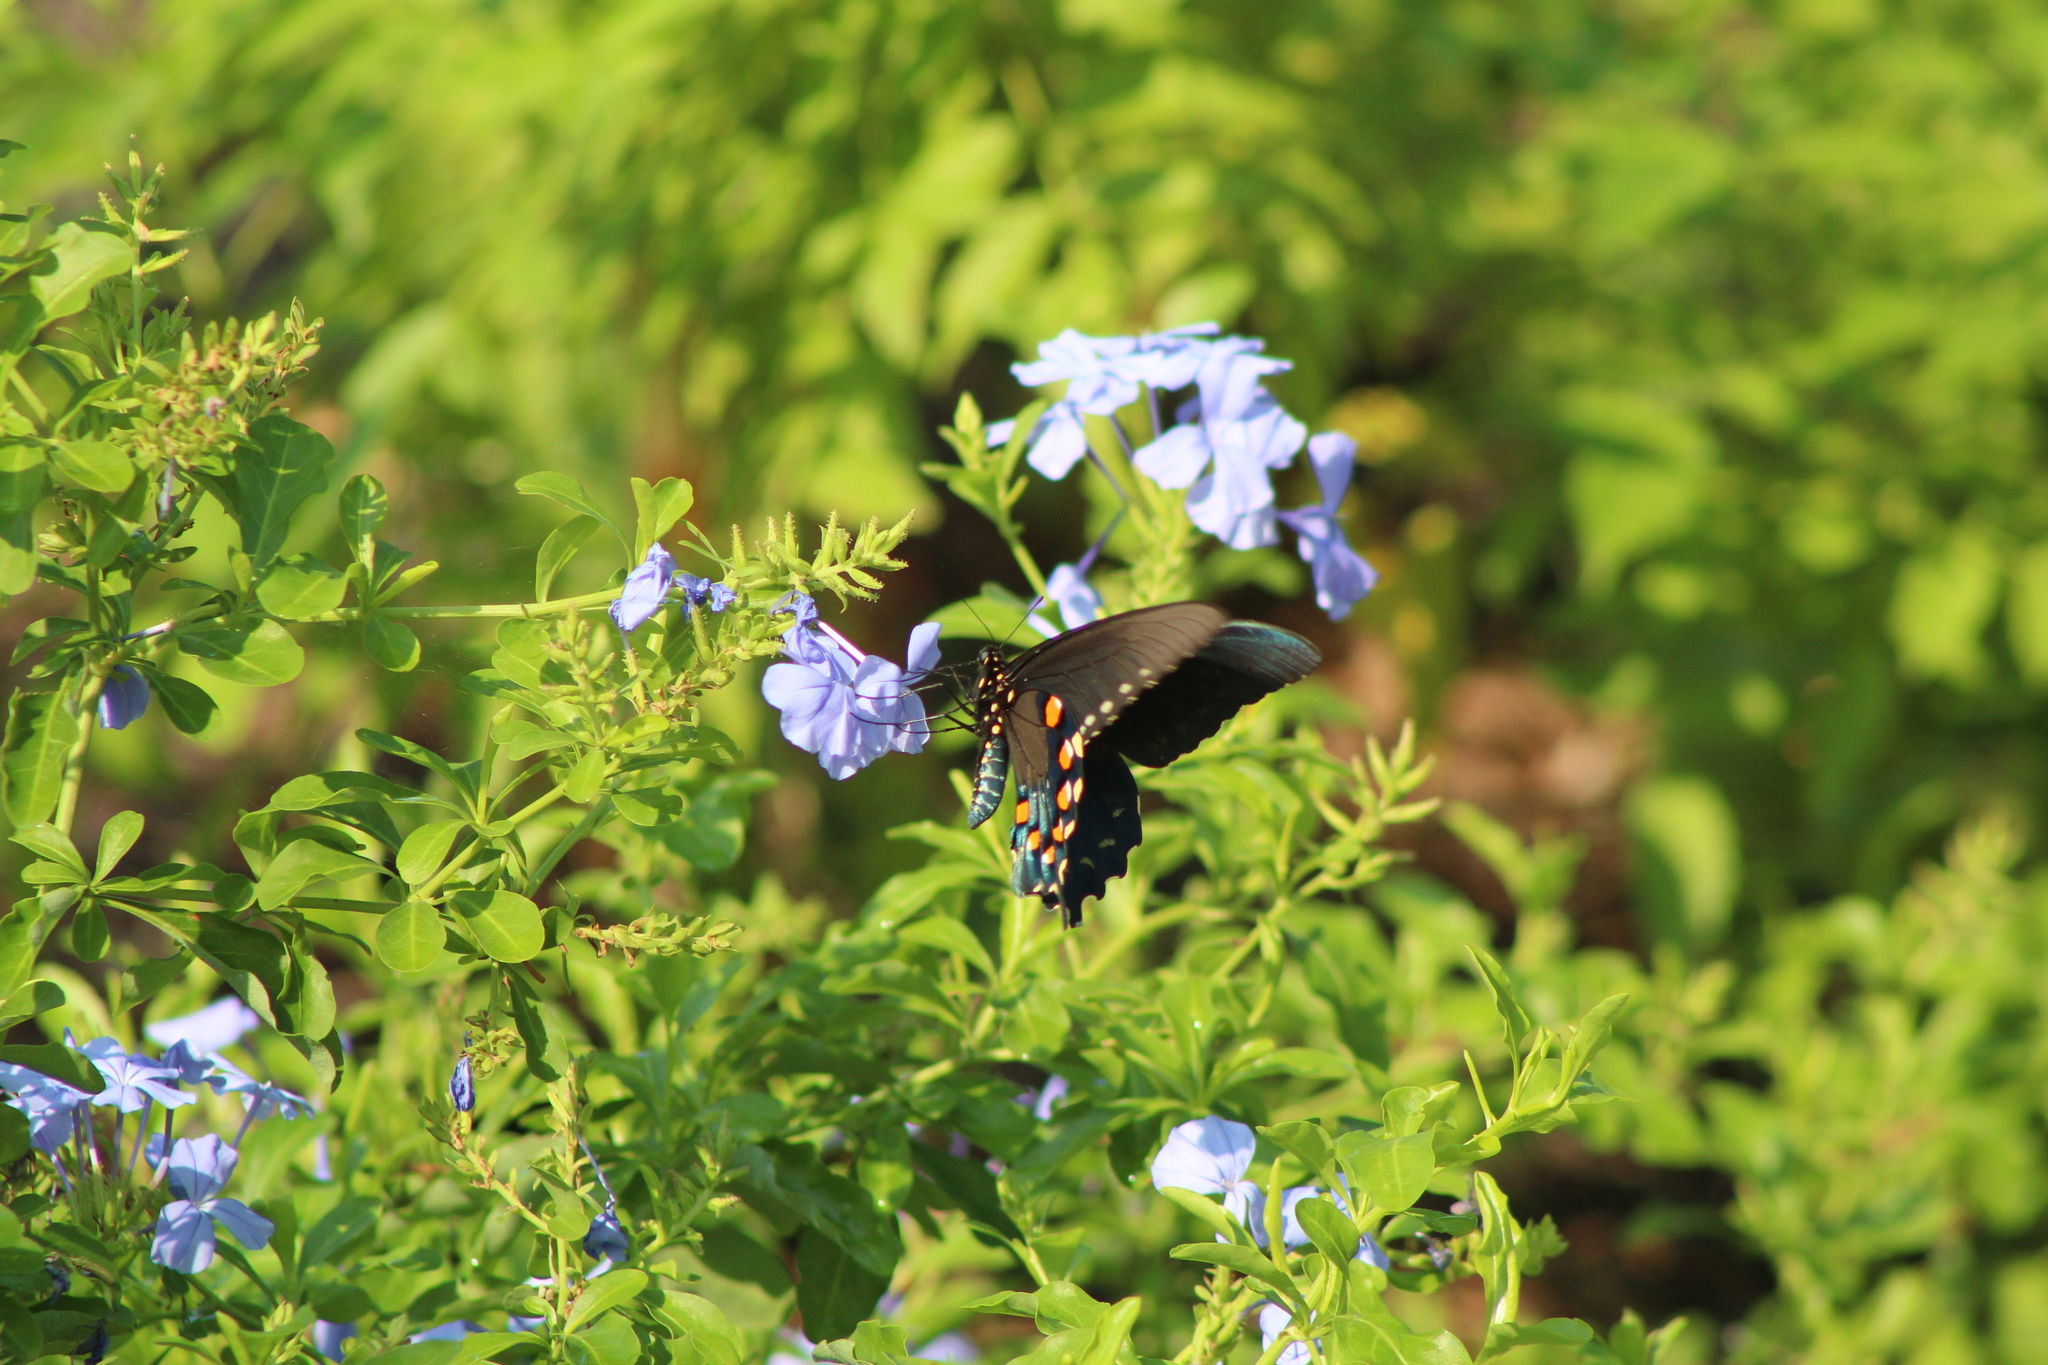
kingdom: Animalia
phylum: Arthropoda
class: Insecta
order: Lepidoptera
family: Papilionidae
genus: Battus
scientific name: Battus philenor
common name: Pipevine swallowtail
